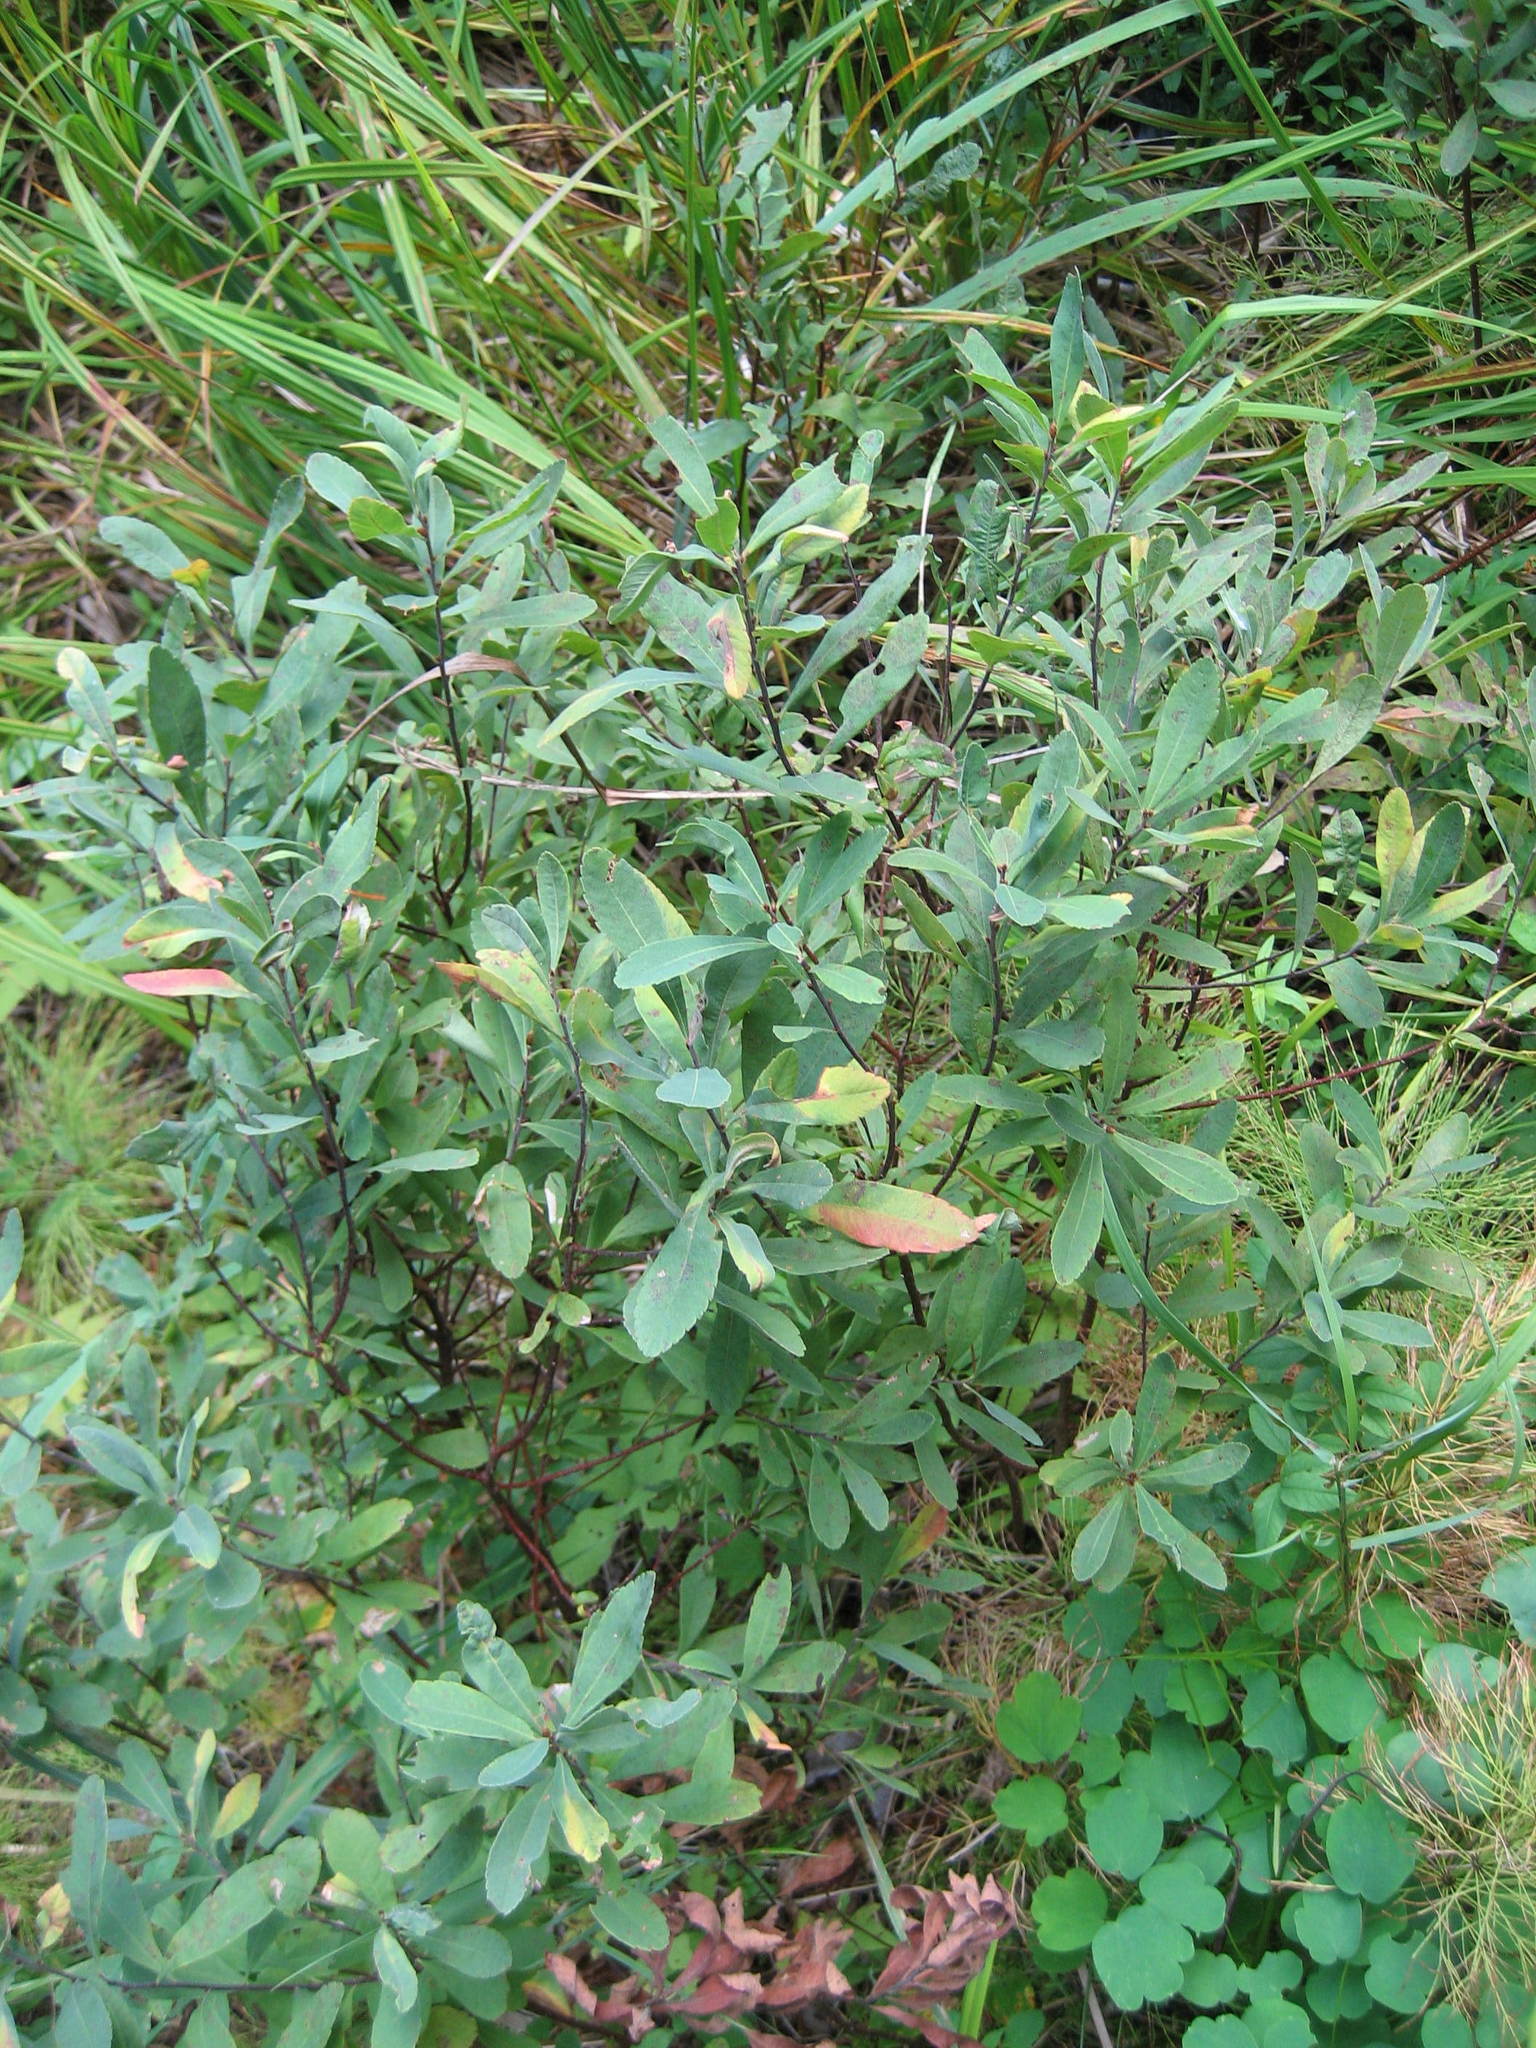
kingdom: Plantae
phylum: Tracheophyta
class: Magnoliopsida
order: Fagales
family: Myricaceae
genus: Myrica
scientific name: Myrica gale
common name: Sweet gale
